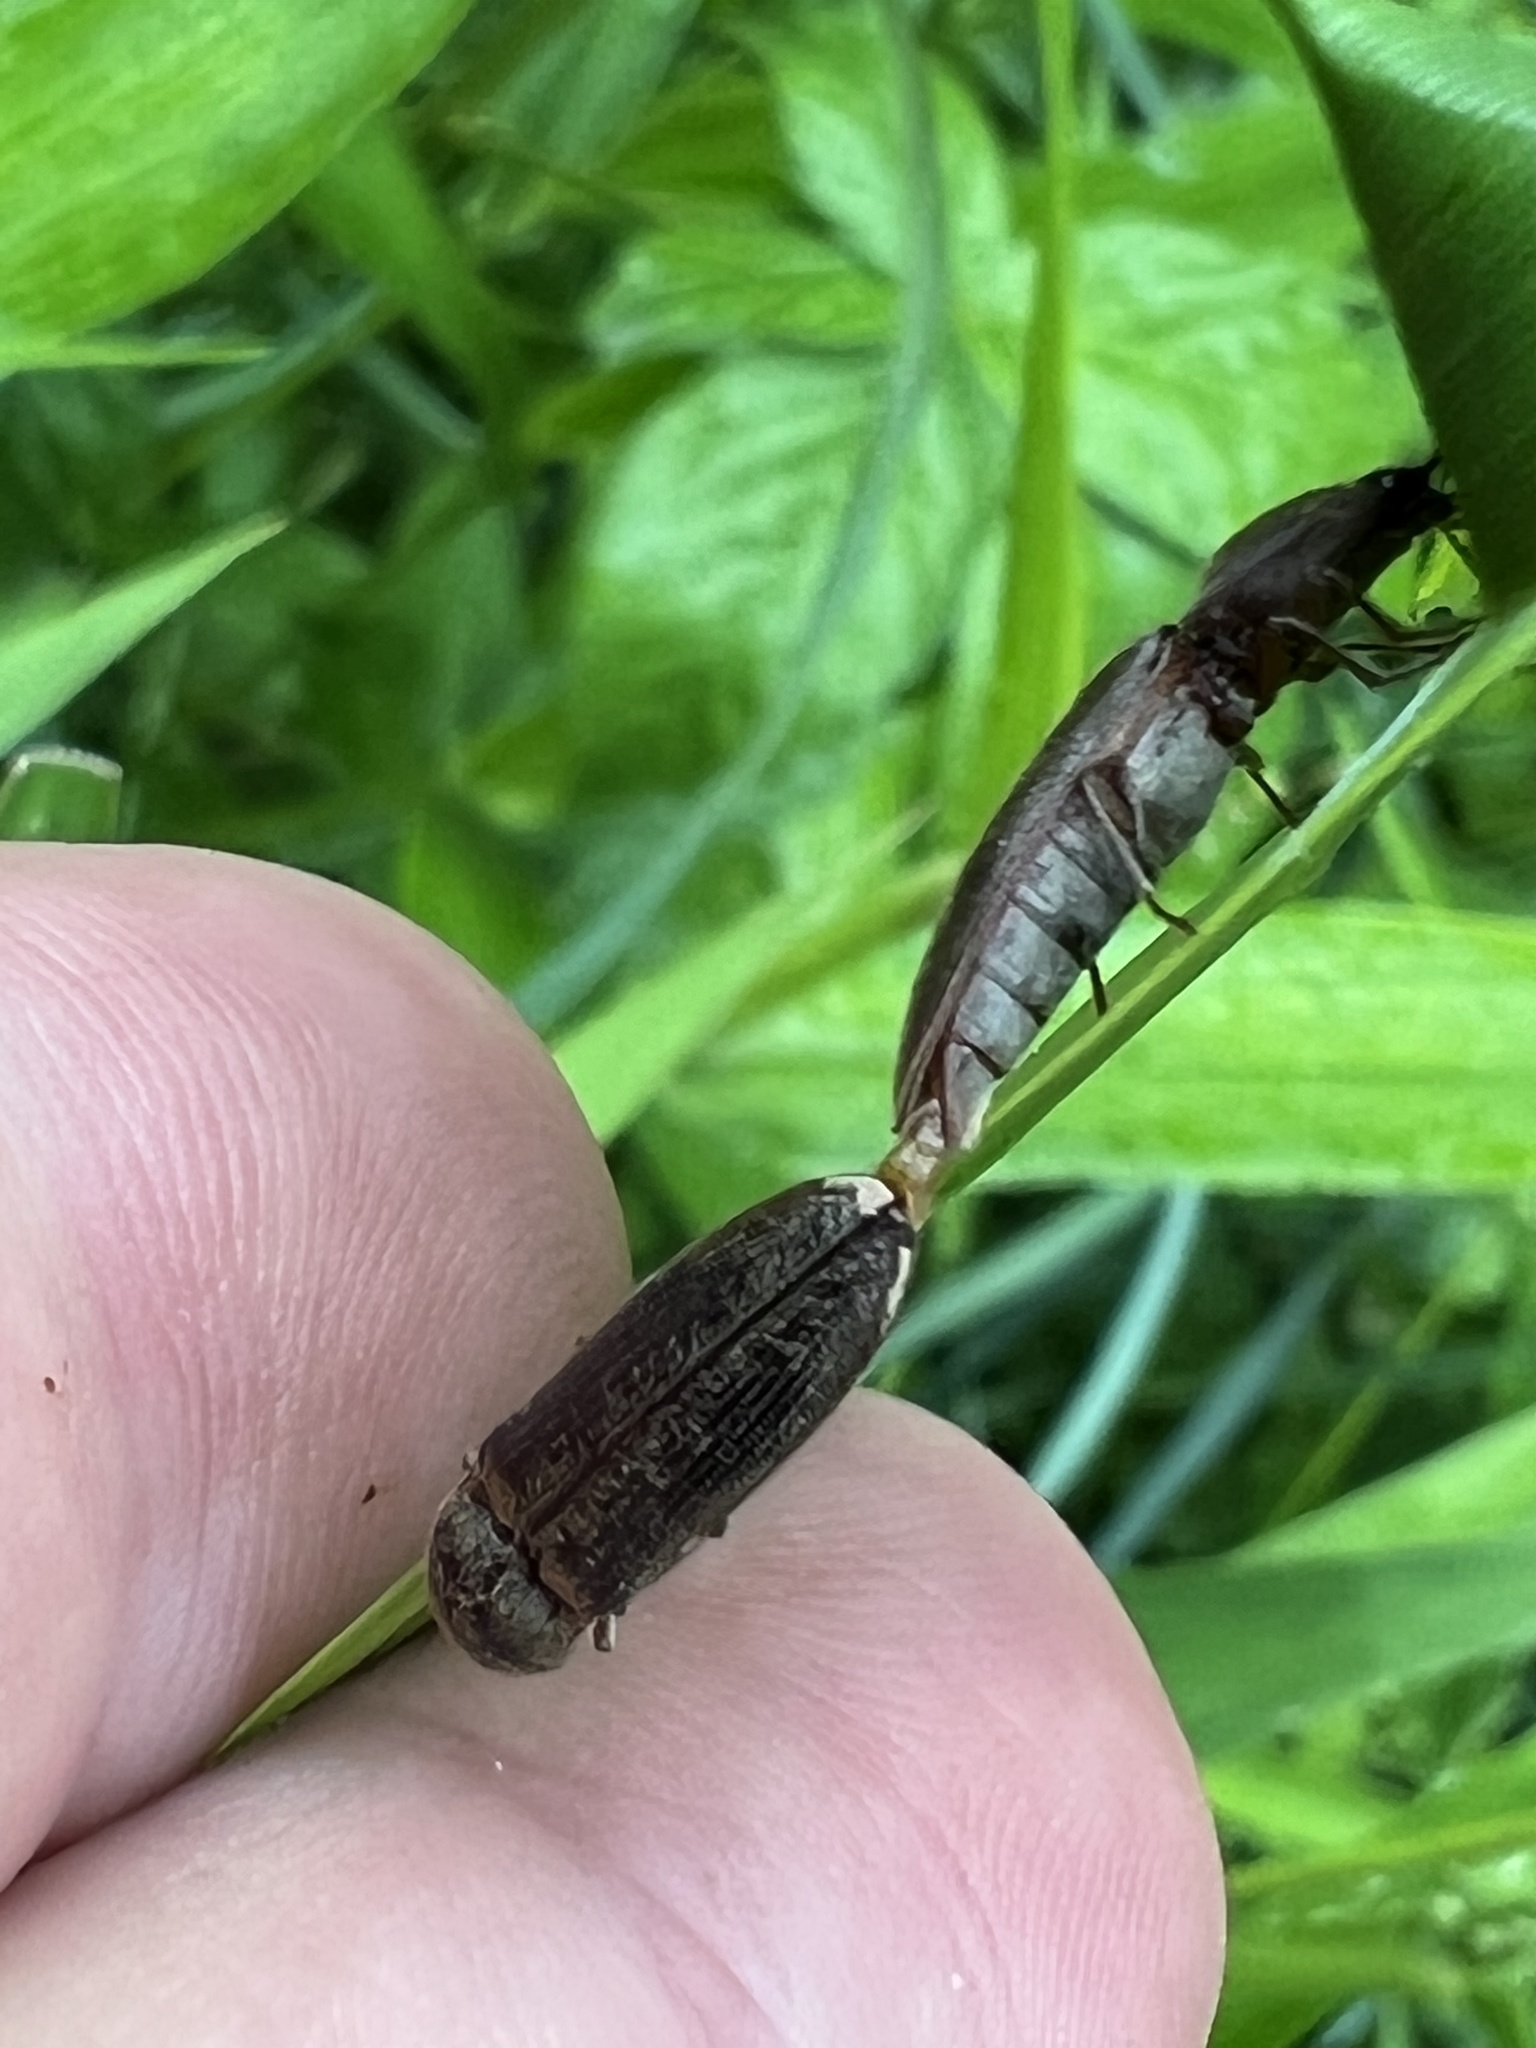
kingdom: Animalia
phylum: Arthropoda
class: Insecta
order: Coleoptera
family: Elateridae
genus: Gambrinus
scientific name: Gambrinus griseus
